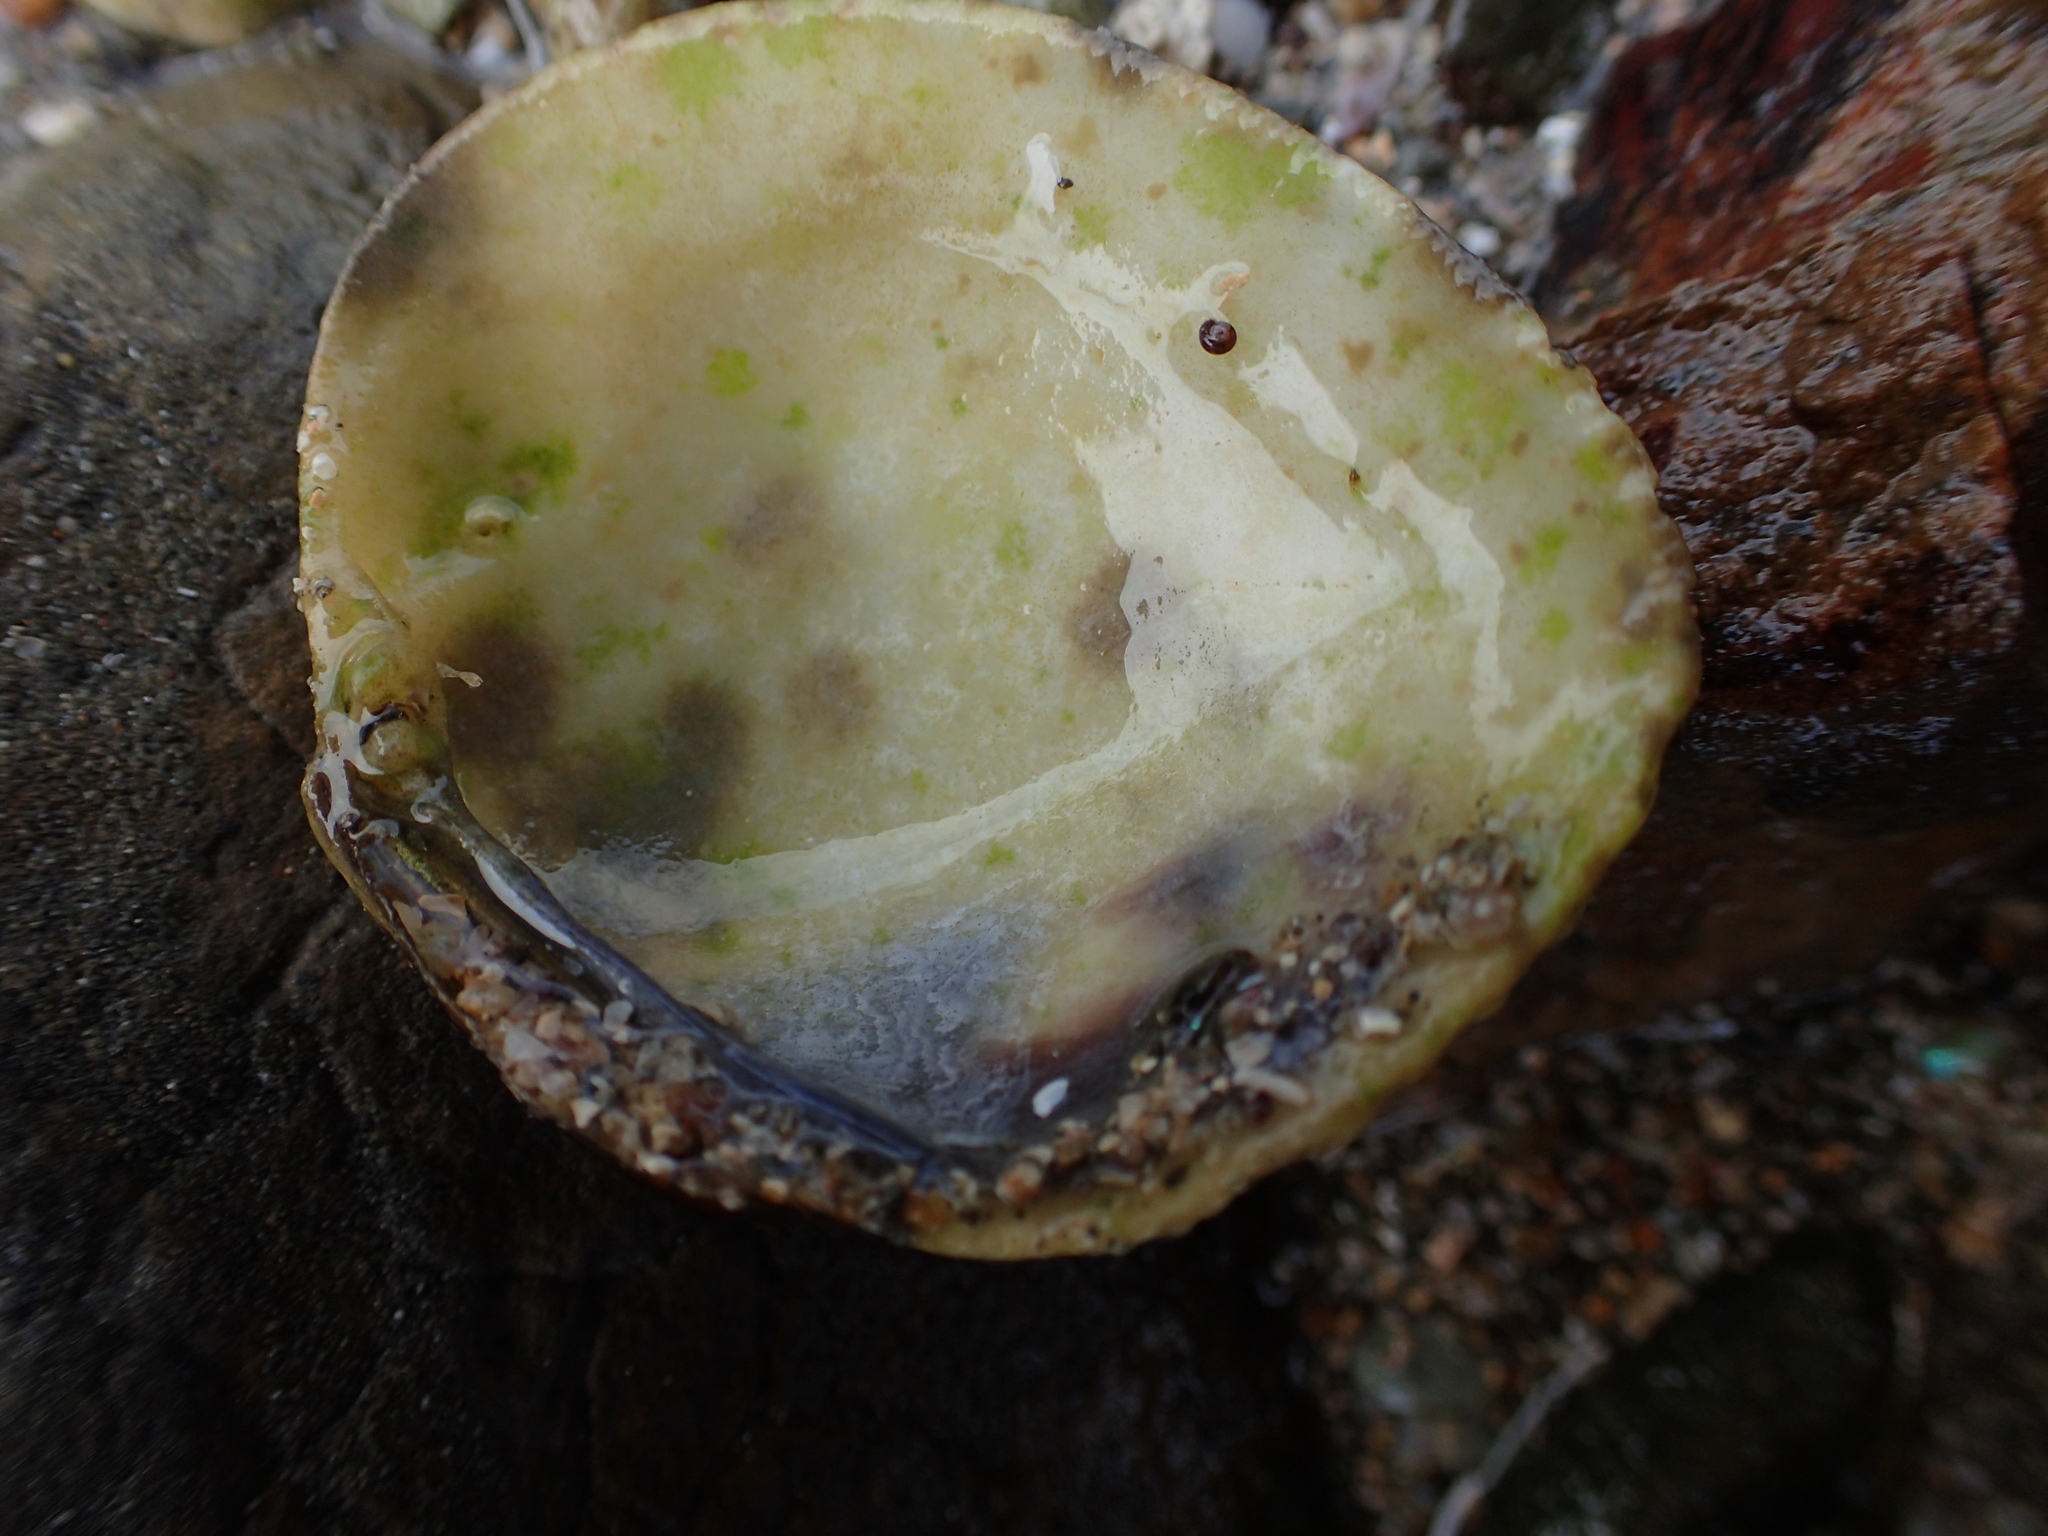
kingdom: Animalia
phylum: Mollusca
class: Bivalvia
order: Venerida
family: Veneridae
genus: Leukoma
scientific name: Leukoma crassicosta
